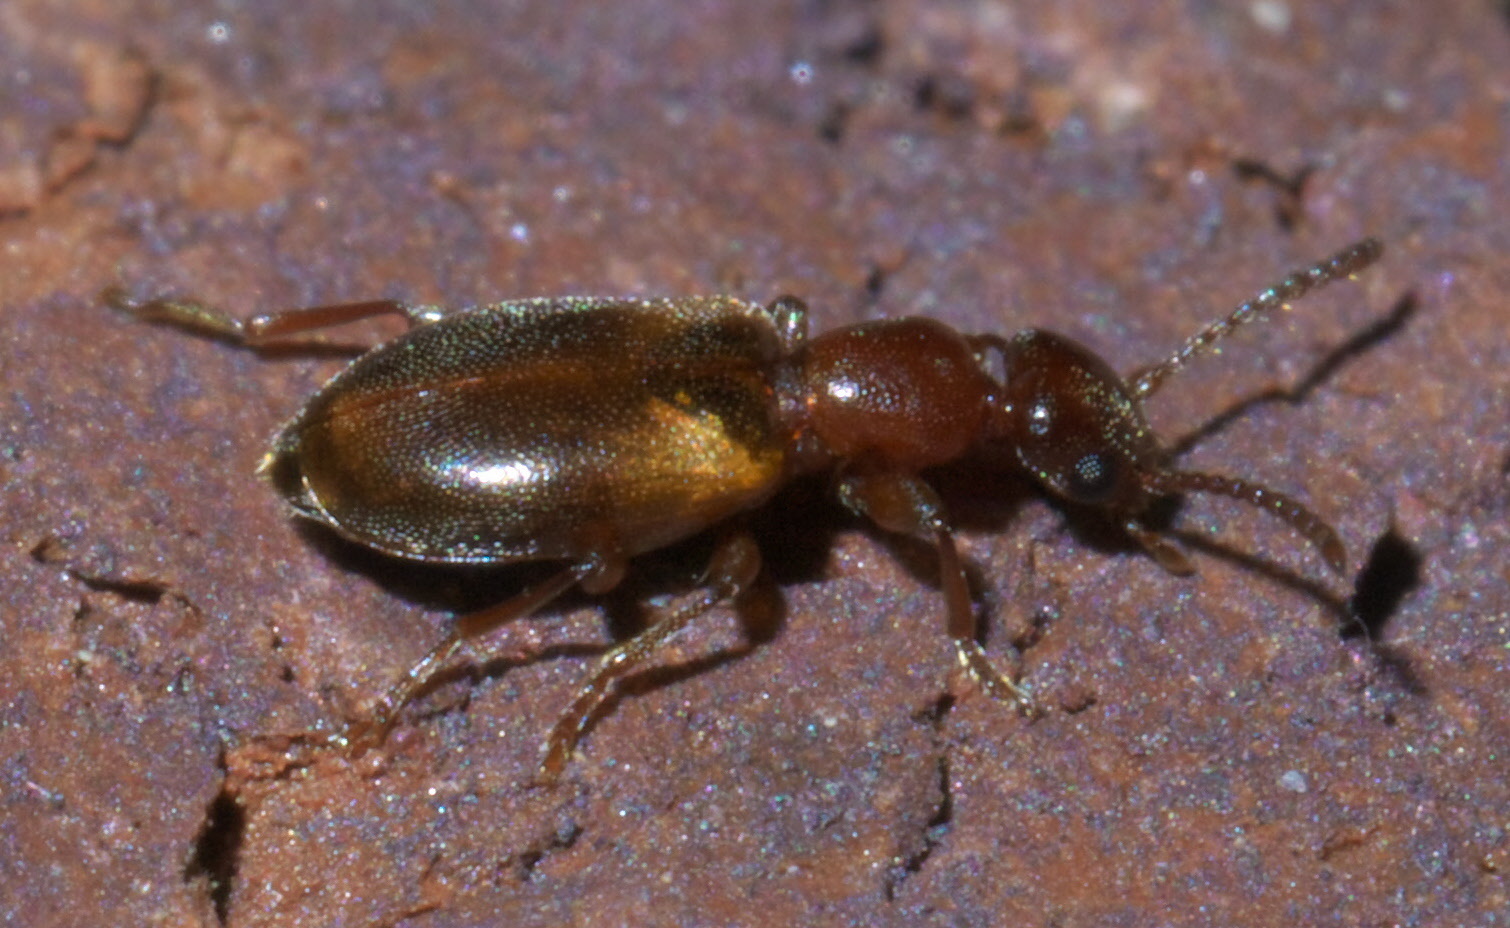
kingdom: Animalia
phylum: Arthropoda
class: Insecta
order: Coleoptera
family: Anthicidae
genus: Omonadus
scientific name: Omonadus floralis
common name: Narrownecked grain beetle
